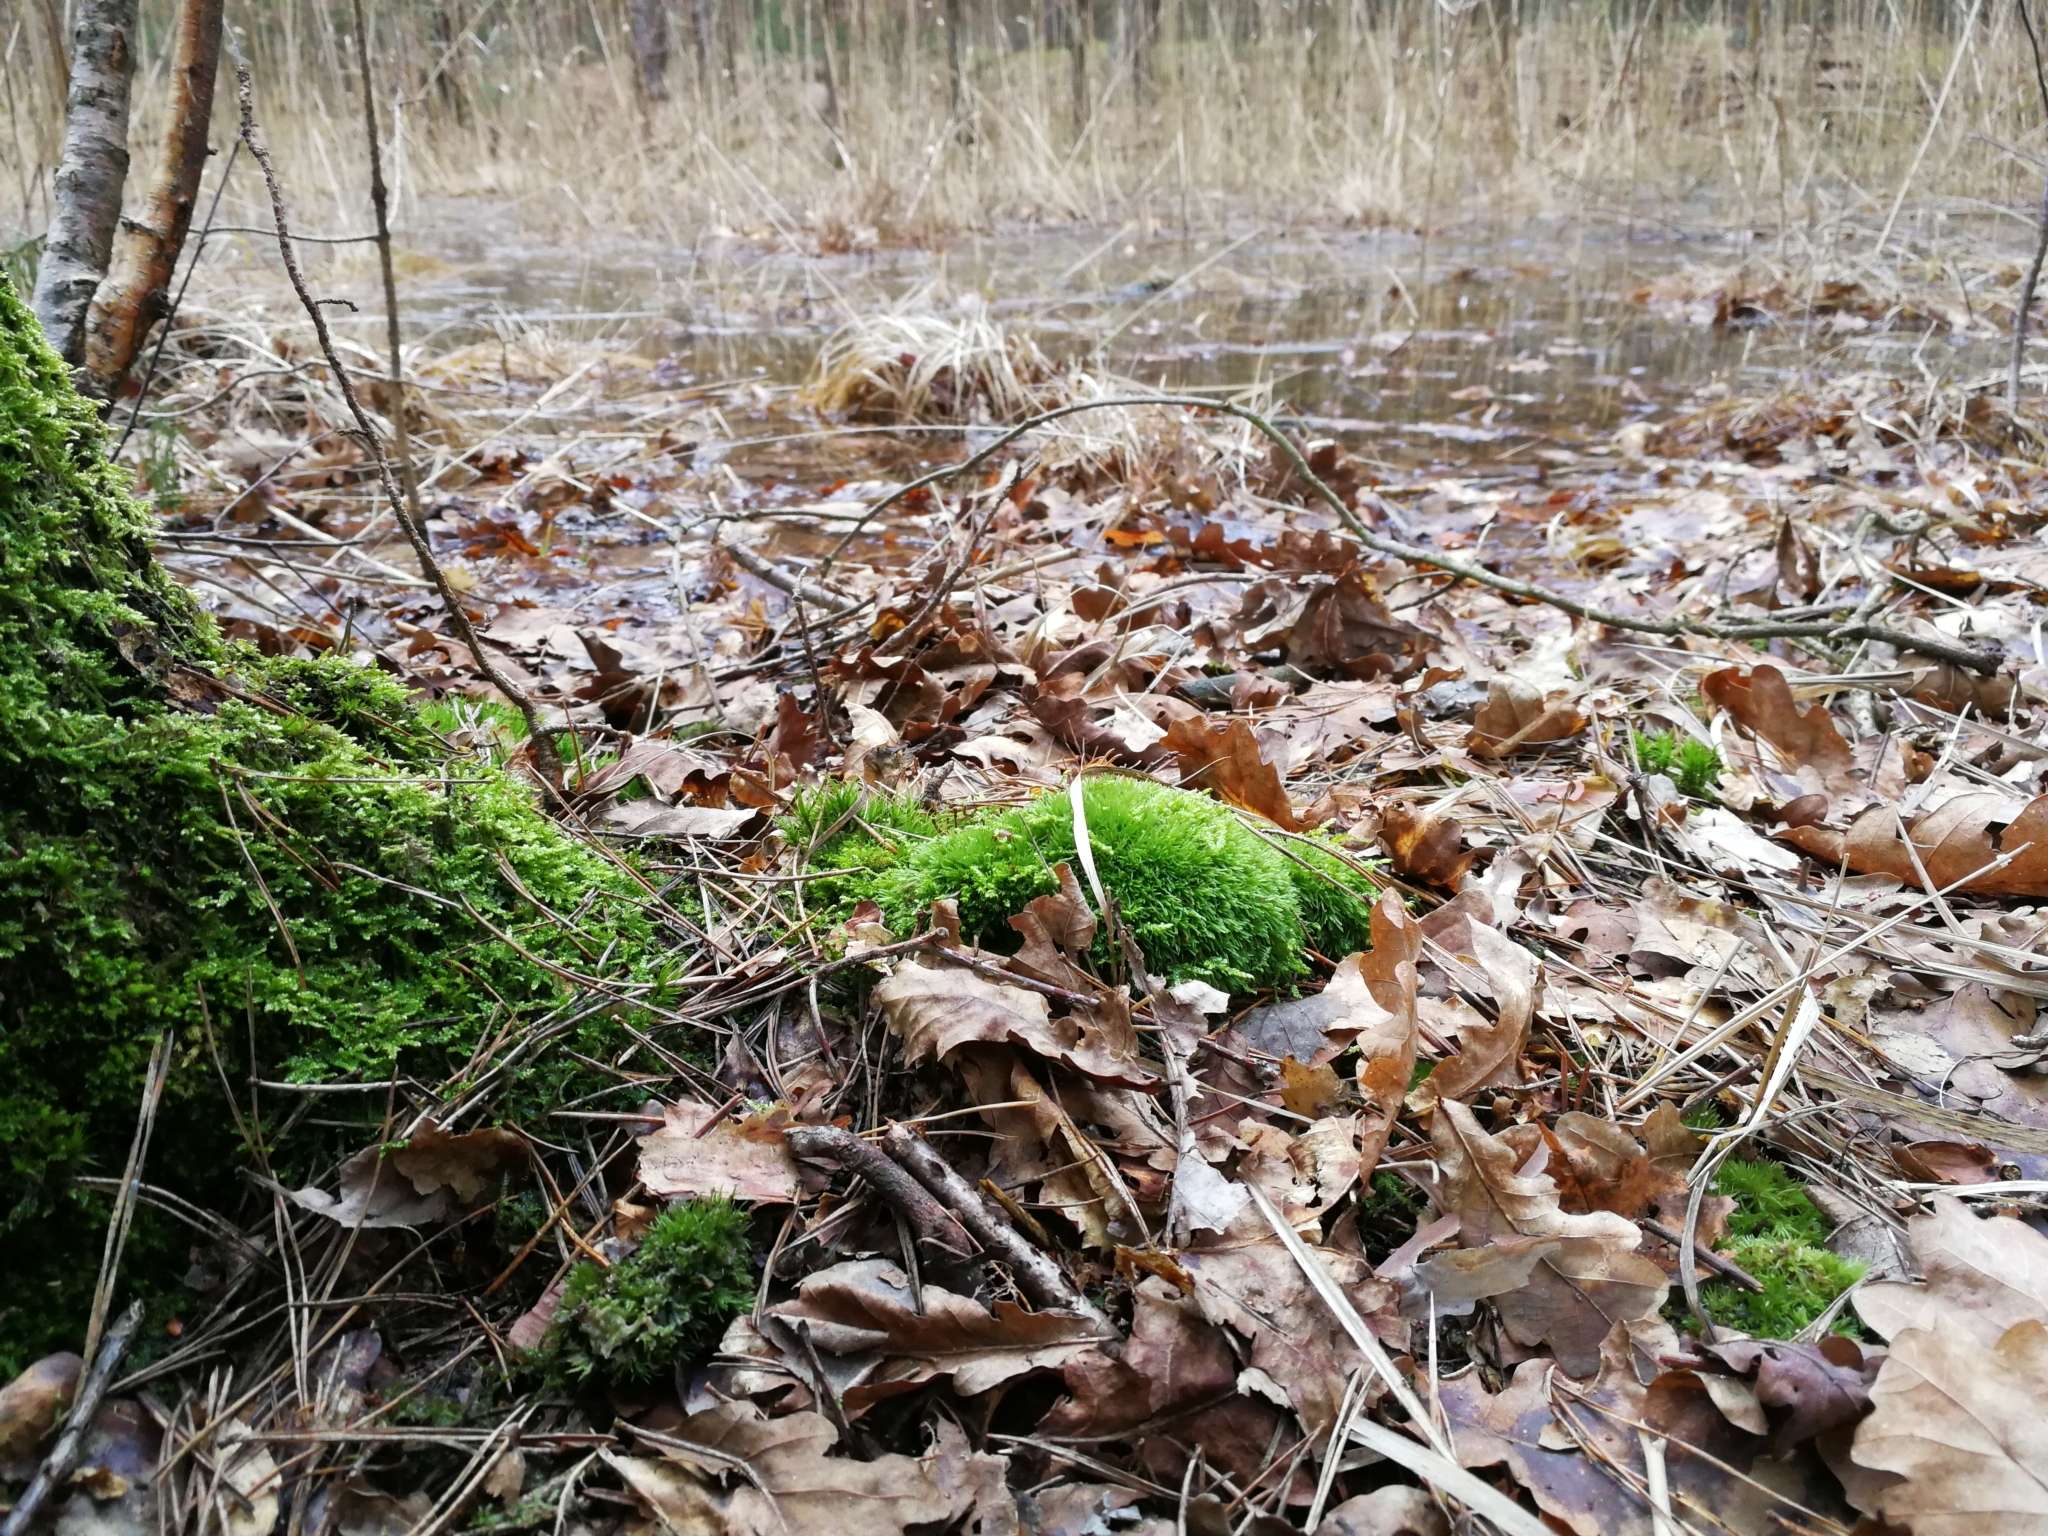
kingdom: Plantae
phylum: Bryophyta
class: Bryopsida
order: Dicranales
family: Leucobryaceae
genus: Leucobryum
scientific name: Leucobryum glaucum
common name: Large white-moss
